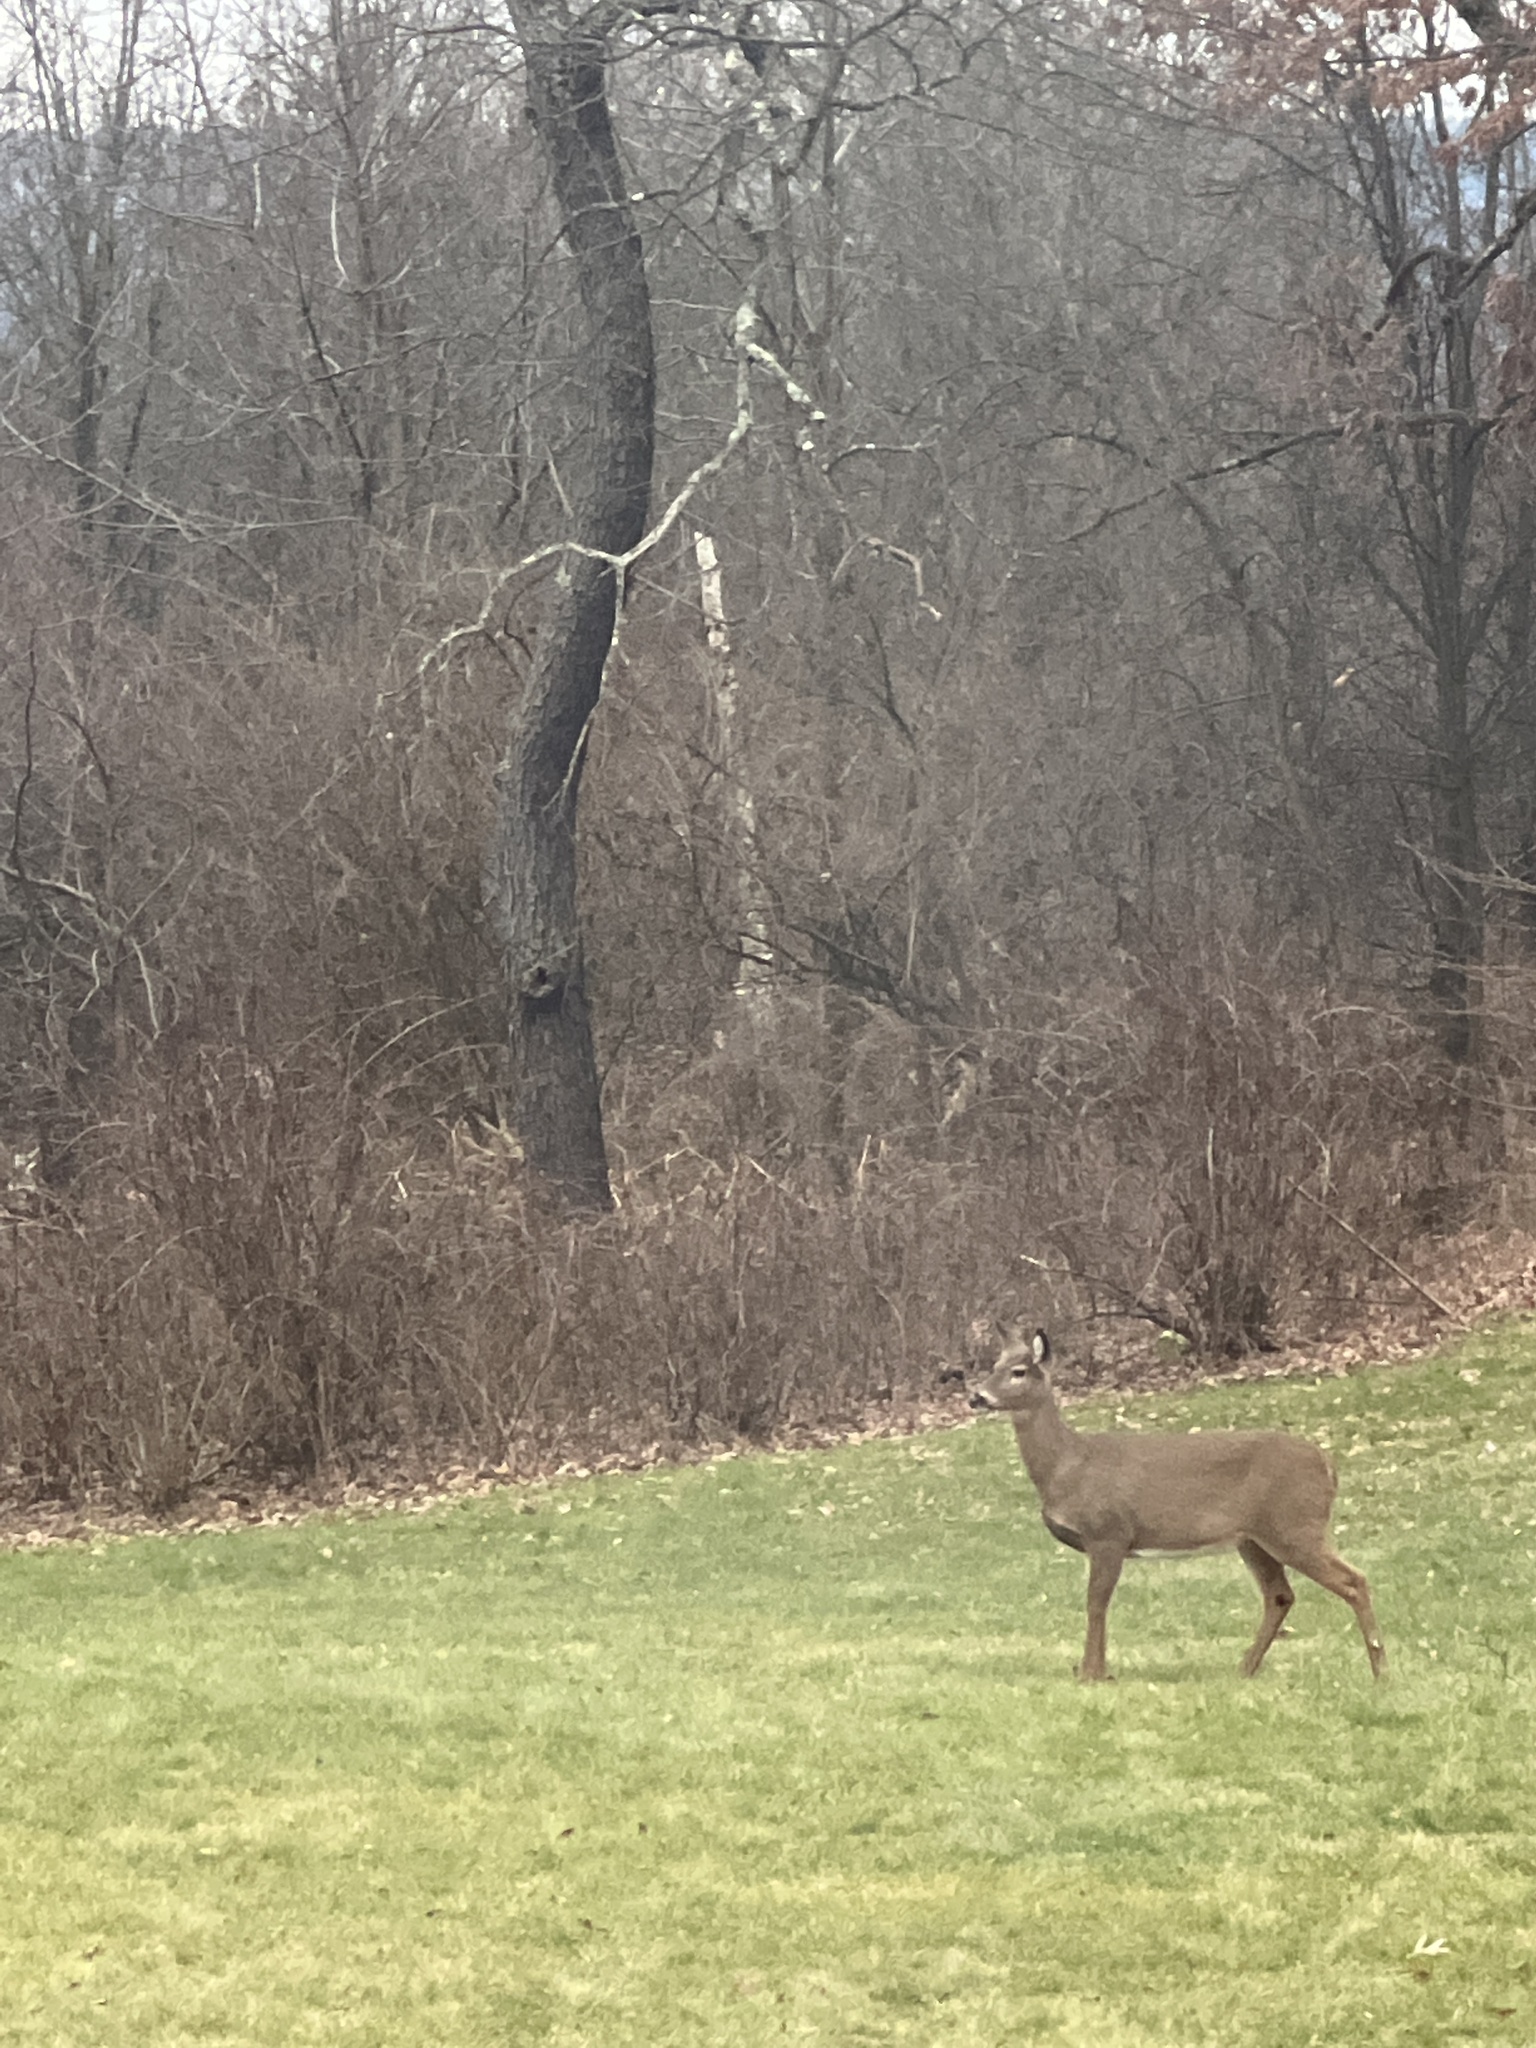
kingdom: Animalia
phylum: Chordata
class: Mammalia
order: Artiodactyla
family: Cervidae
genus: Odocoileus
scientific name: Odocoileus virginianus
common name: White-tailed deer
